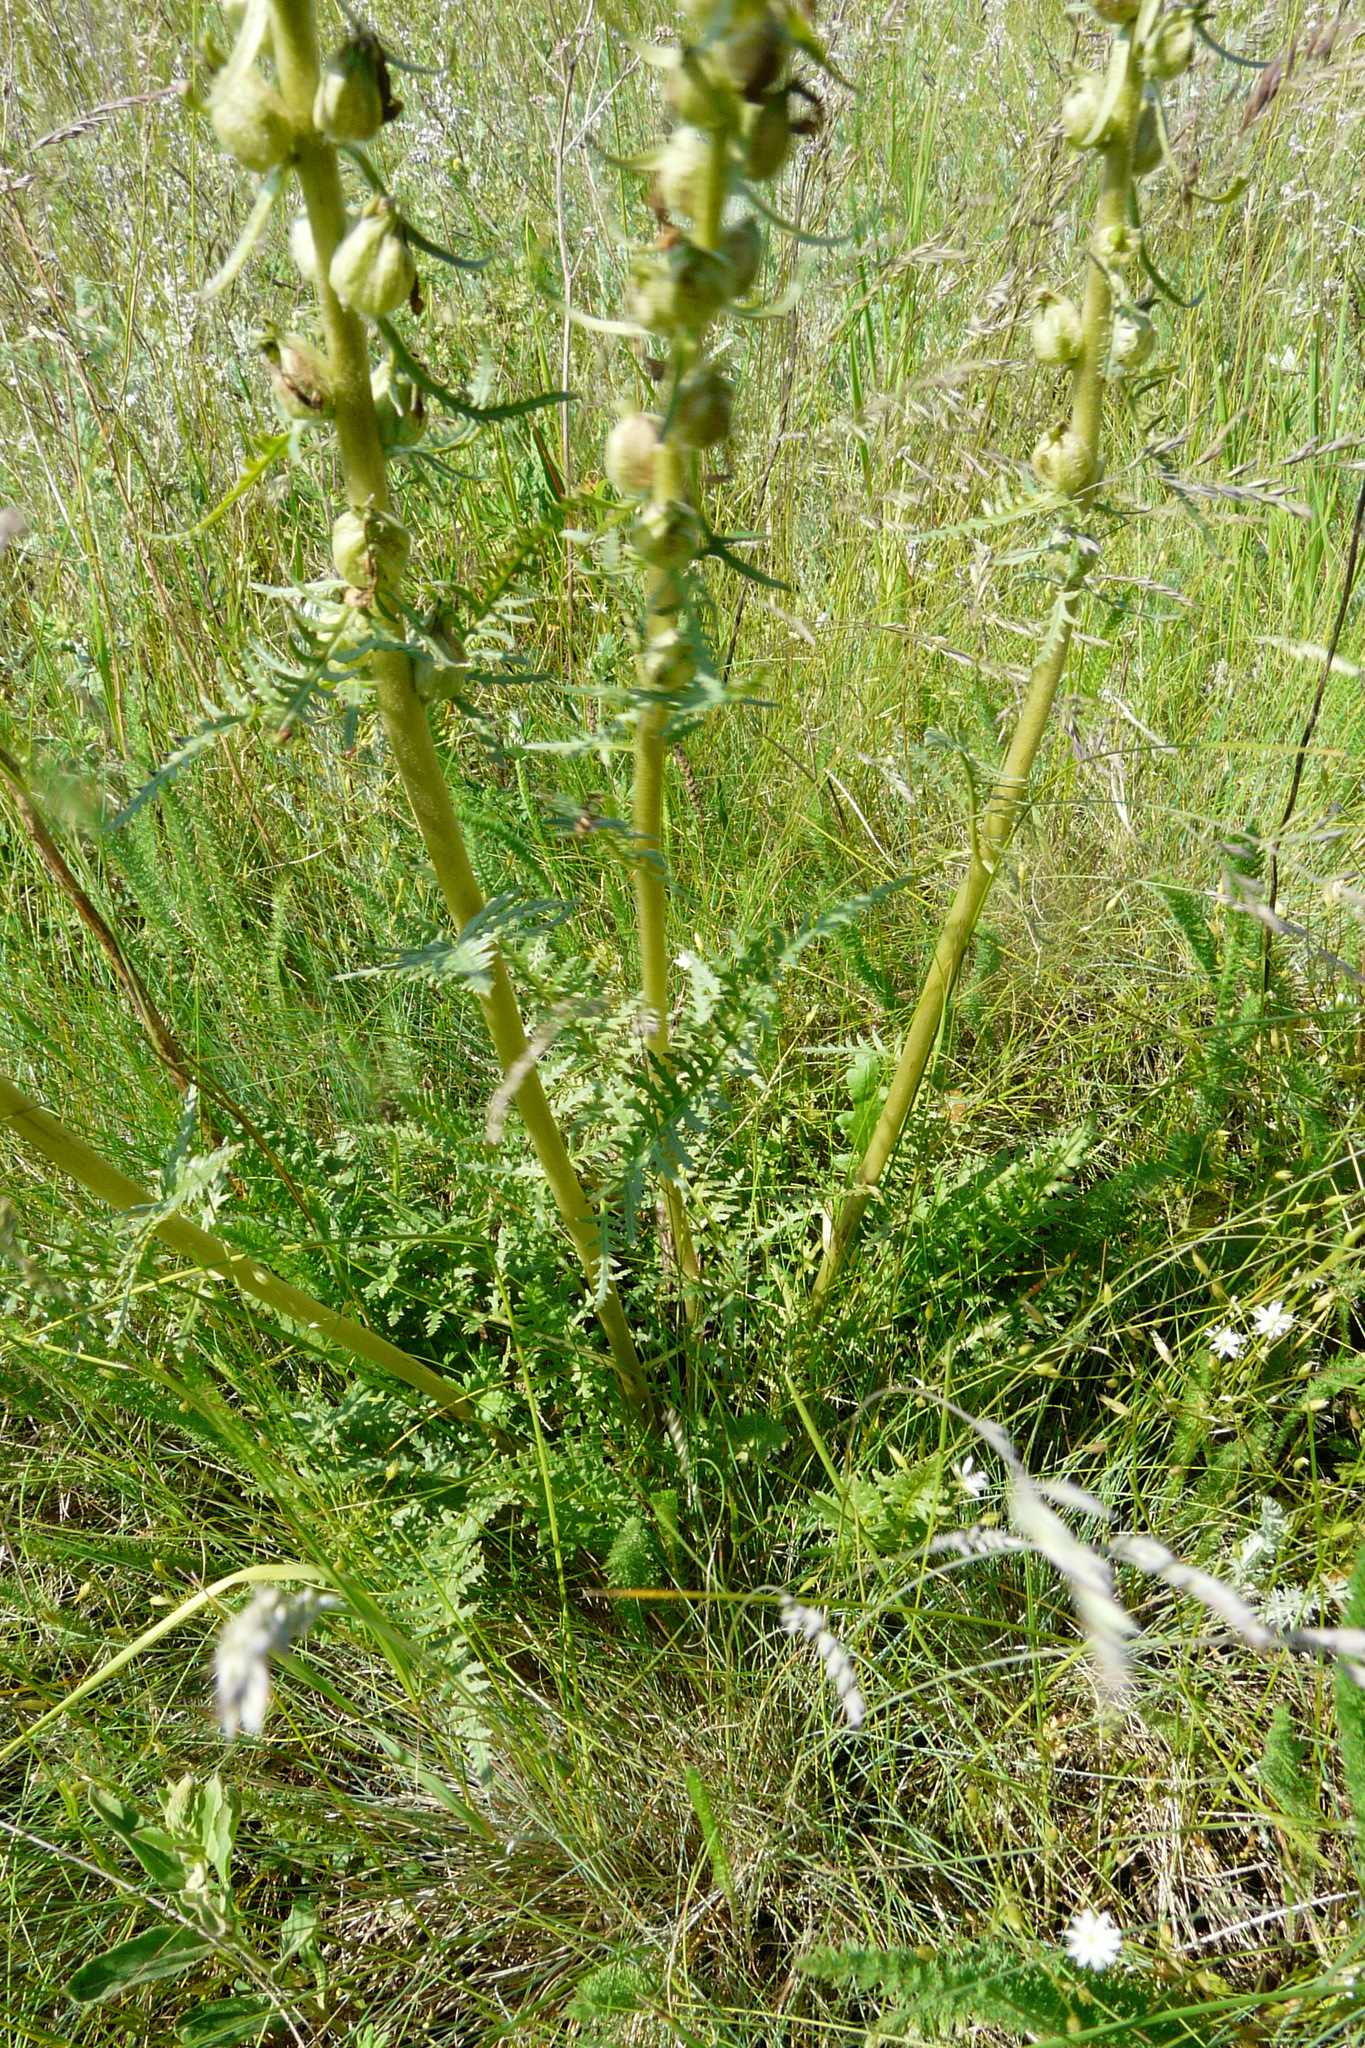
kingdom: Plantae
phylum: Tracheophyta
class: Magnoliopsida
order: Lamiales
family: Orobanchaceae
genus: Pedicularis
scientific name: Pedicularis dasystachys
